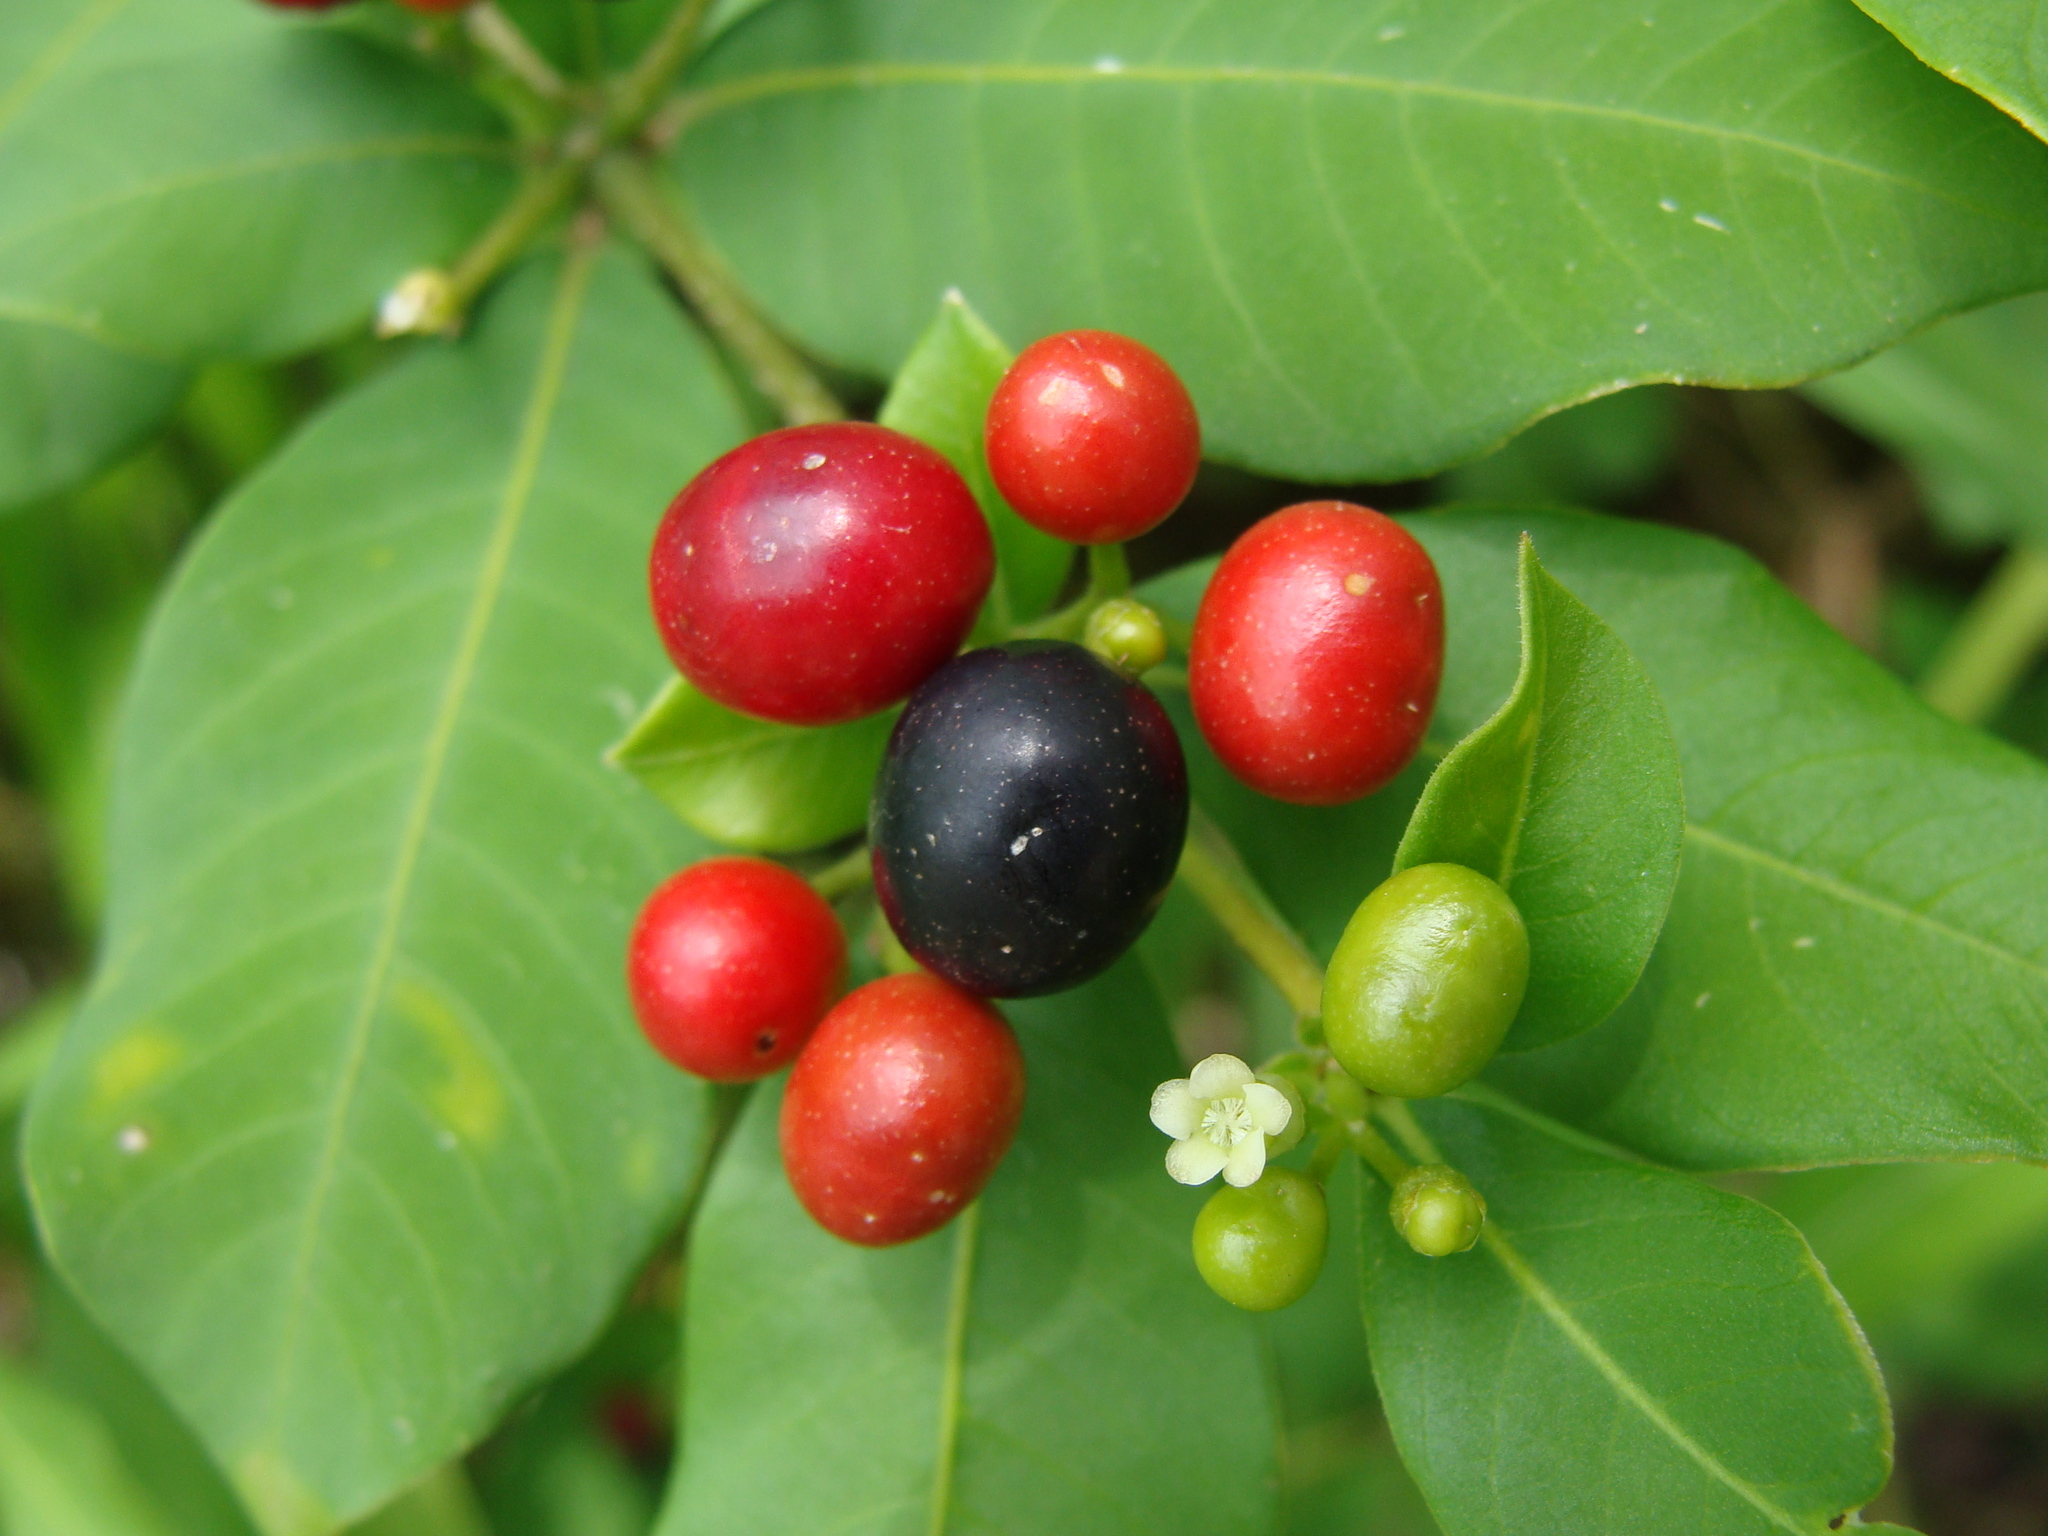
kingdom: Plantae
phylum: Tracheophyta
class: Magnoliopsida
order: Gentianales
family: Apocynaceae
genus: Rauvolfia
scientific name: Rauvolfia tetraphylla
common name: Four-leaf devil-pepper
